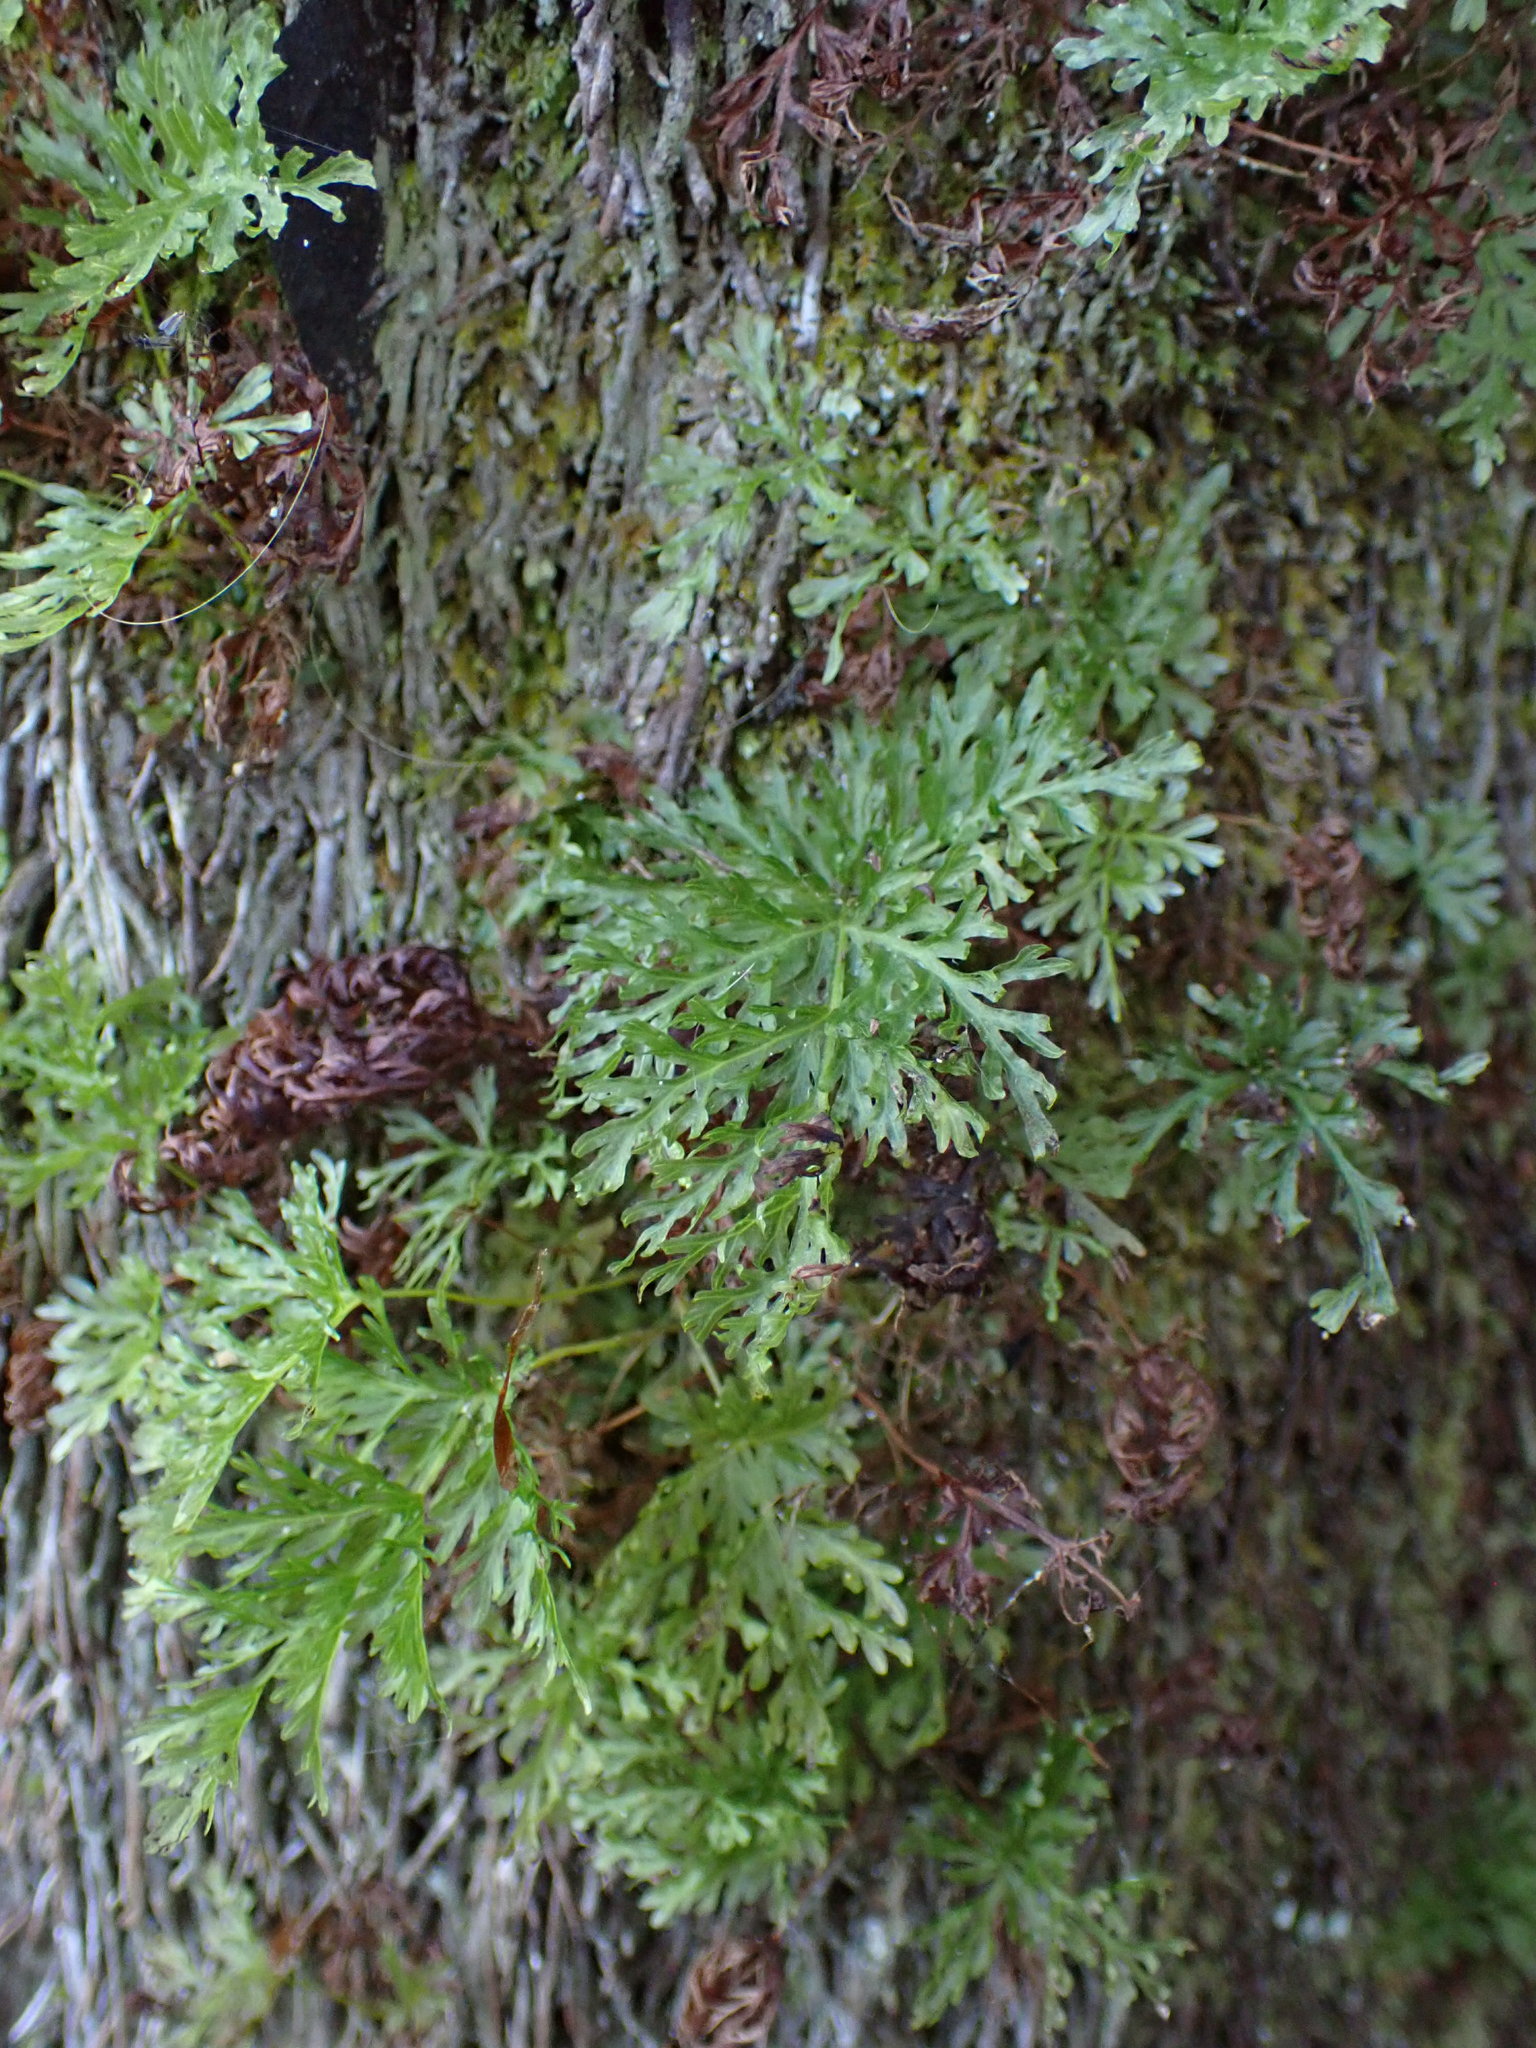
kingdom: Plantae
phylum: Tracheophyta
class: Polypodiopsida
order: Osmundales
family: Osmundaceae
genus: Leptopteris
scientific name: Leptopteris hymenophylloides
